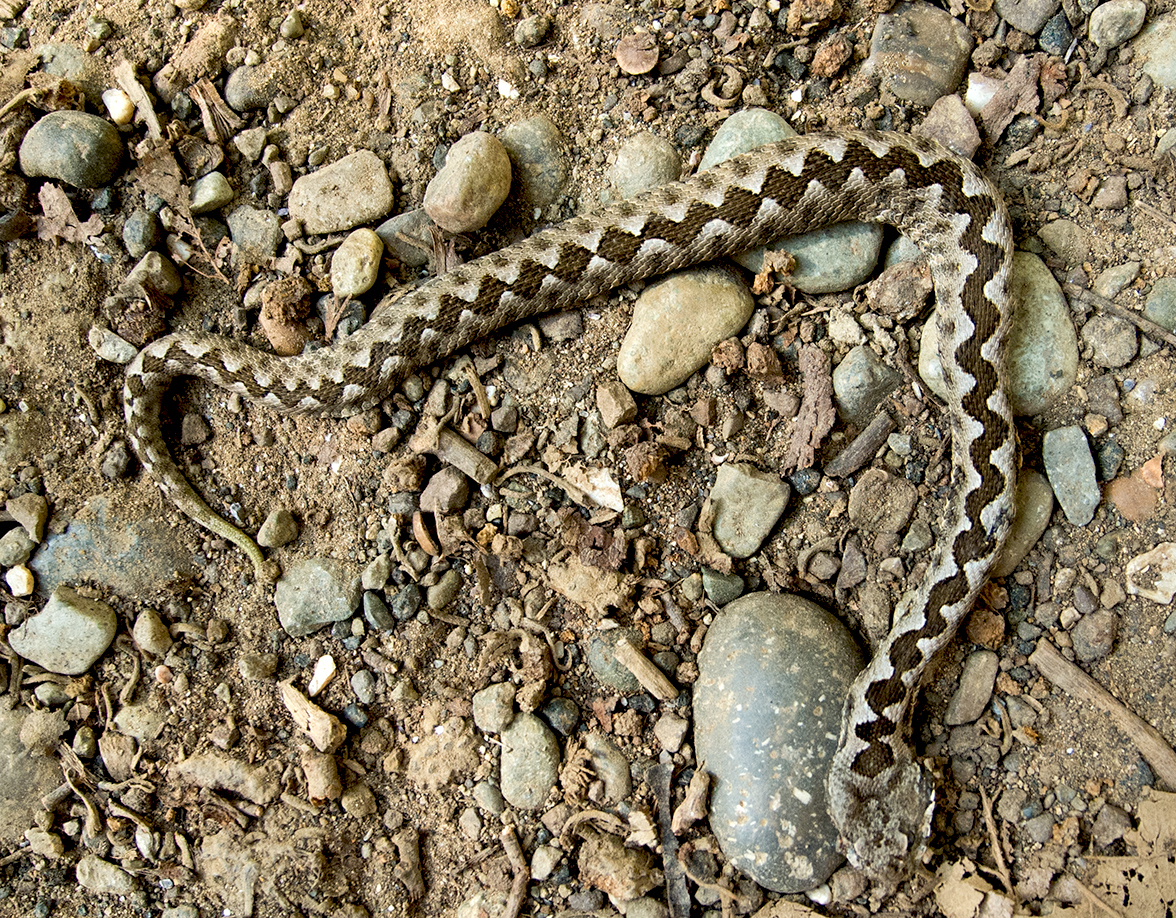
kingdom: Animalia
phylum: Chordata
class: Squamata
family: Viperidae
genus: Vipera
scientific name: Vipera ammodytes
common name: Sand viper
